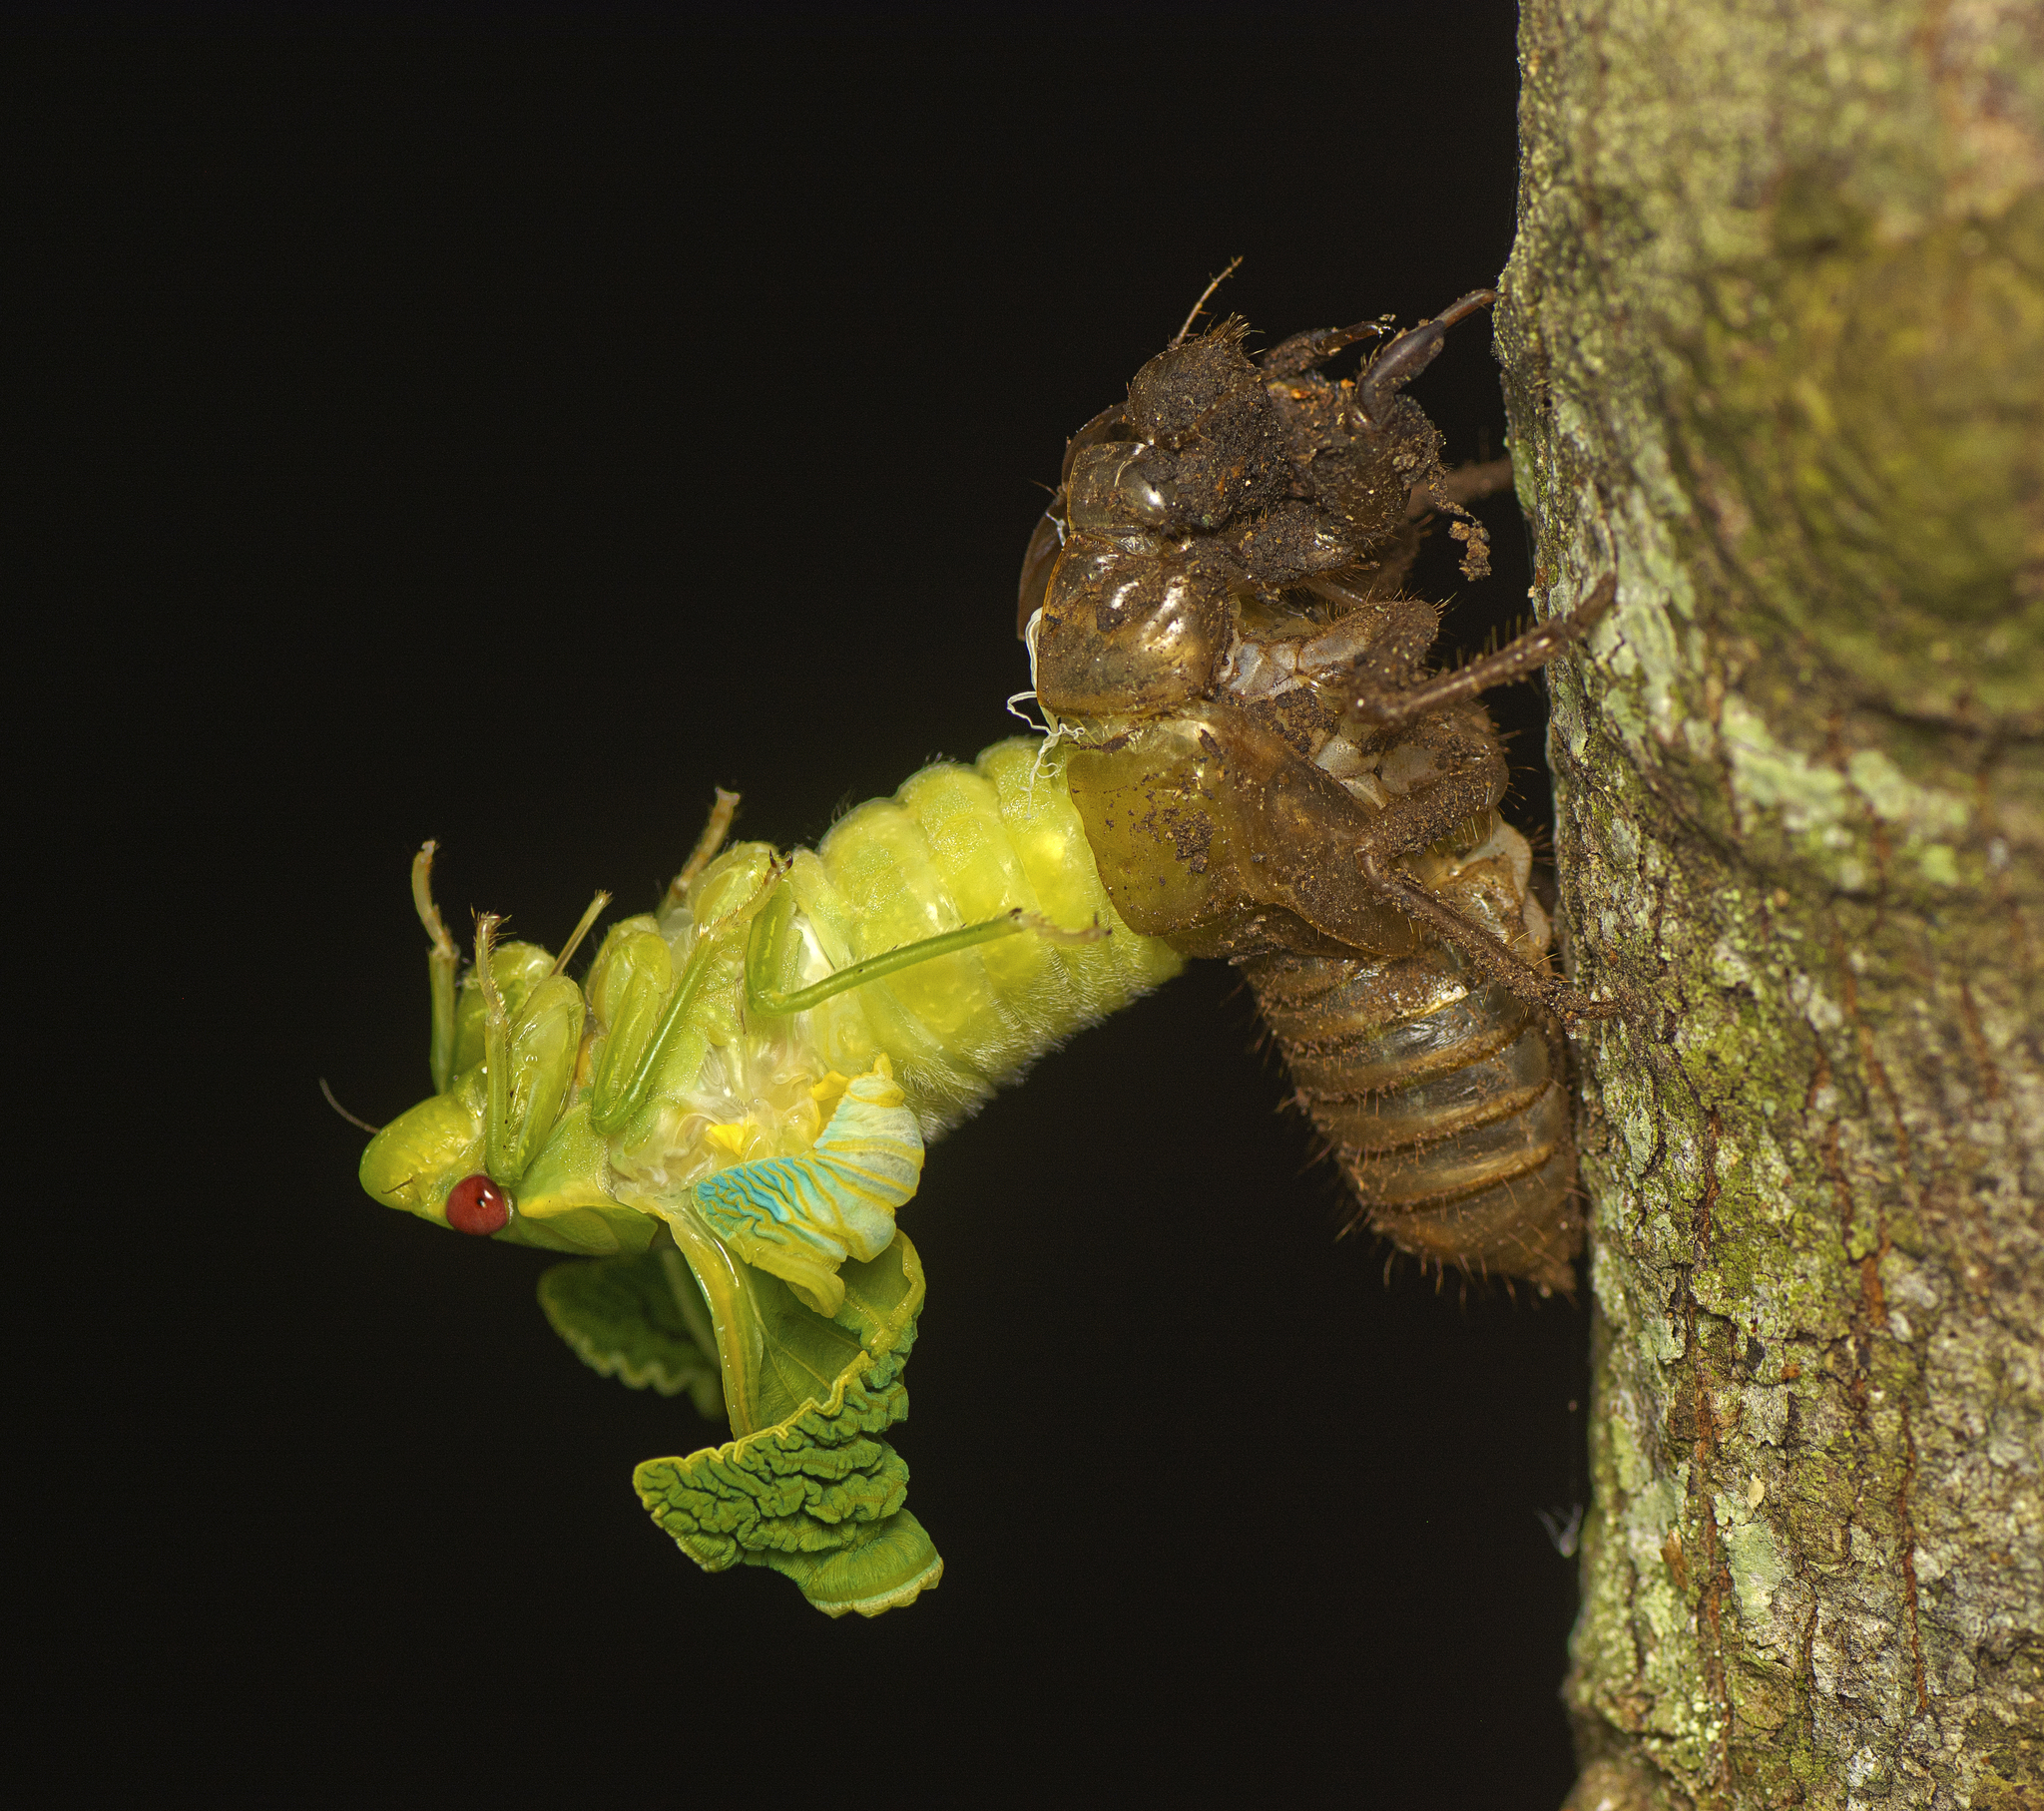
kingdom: Animalia
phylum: Arthropoda
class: Insecta
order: Hemiptera
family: Cicadidae
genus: Cyclochila
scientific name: Cyclochila australasiae
